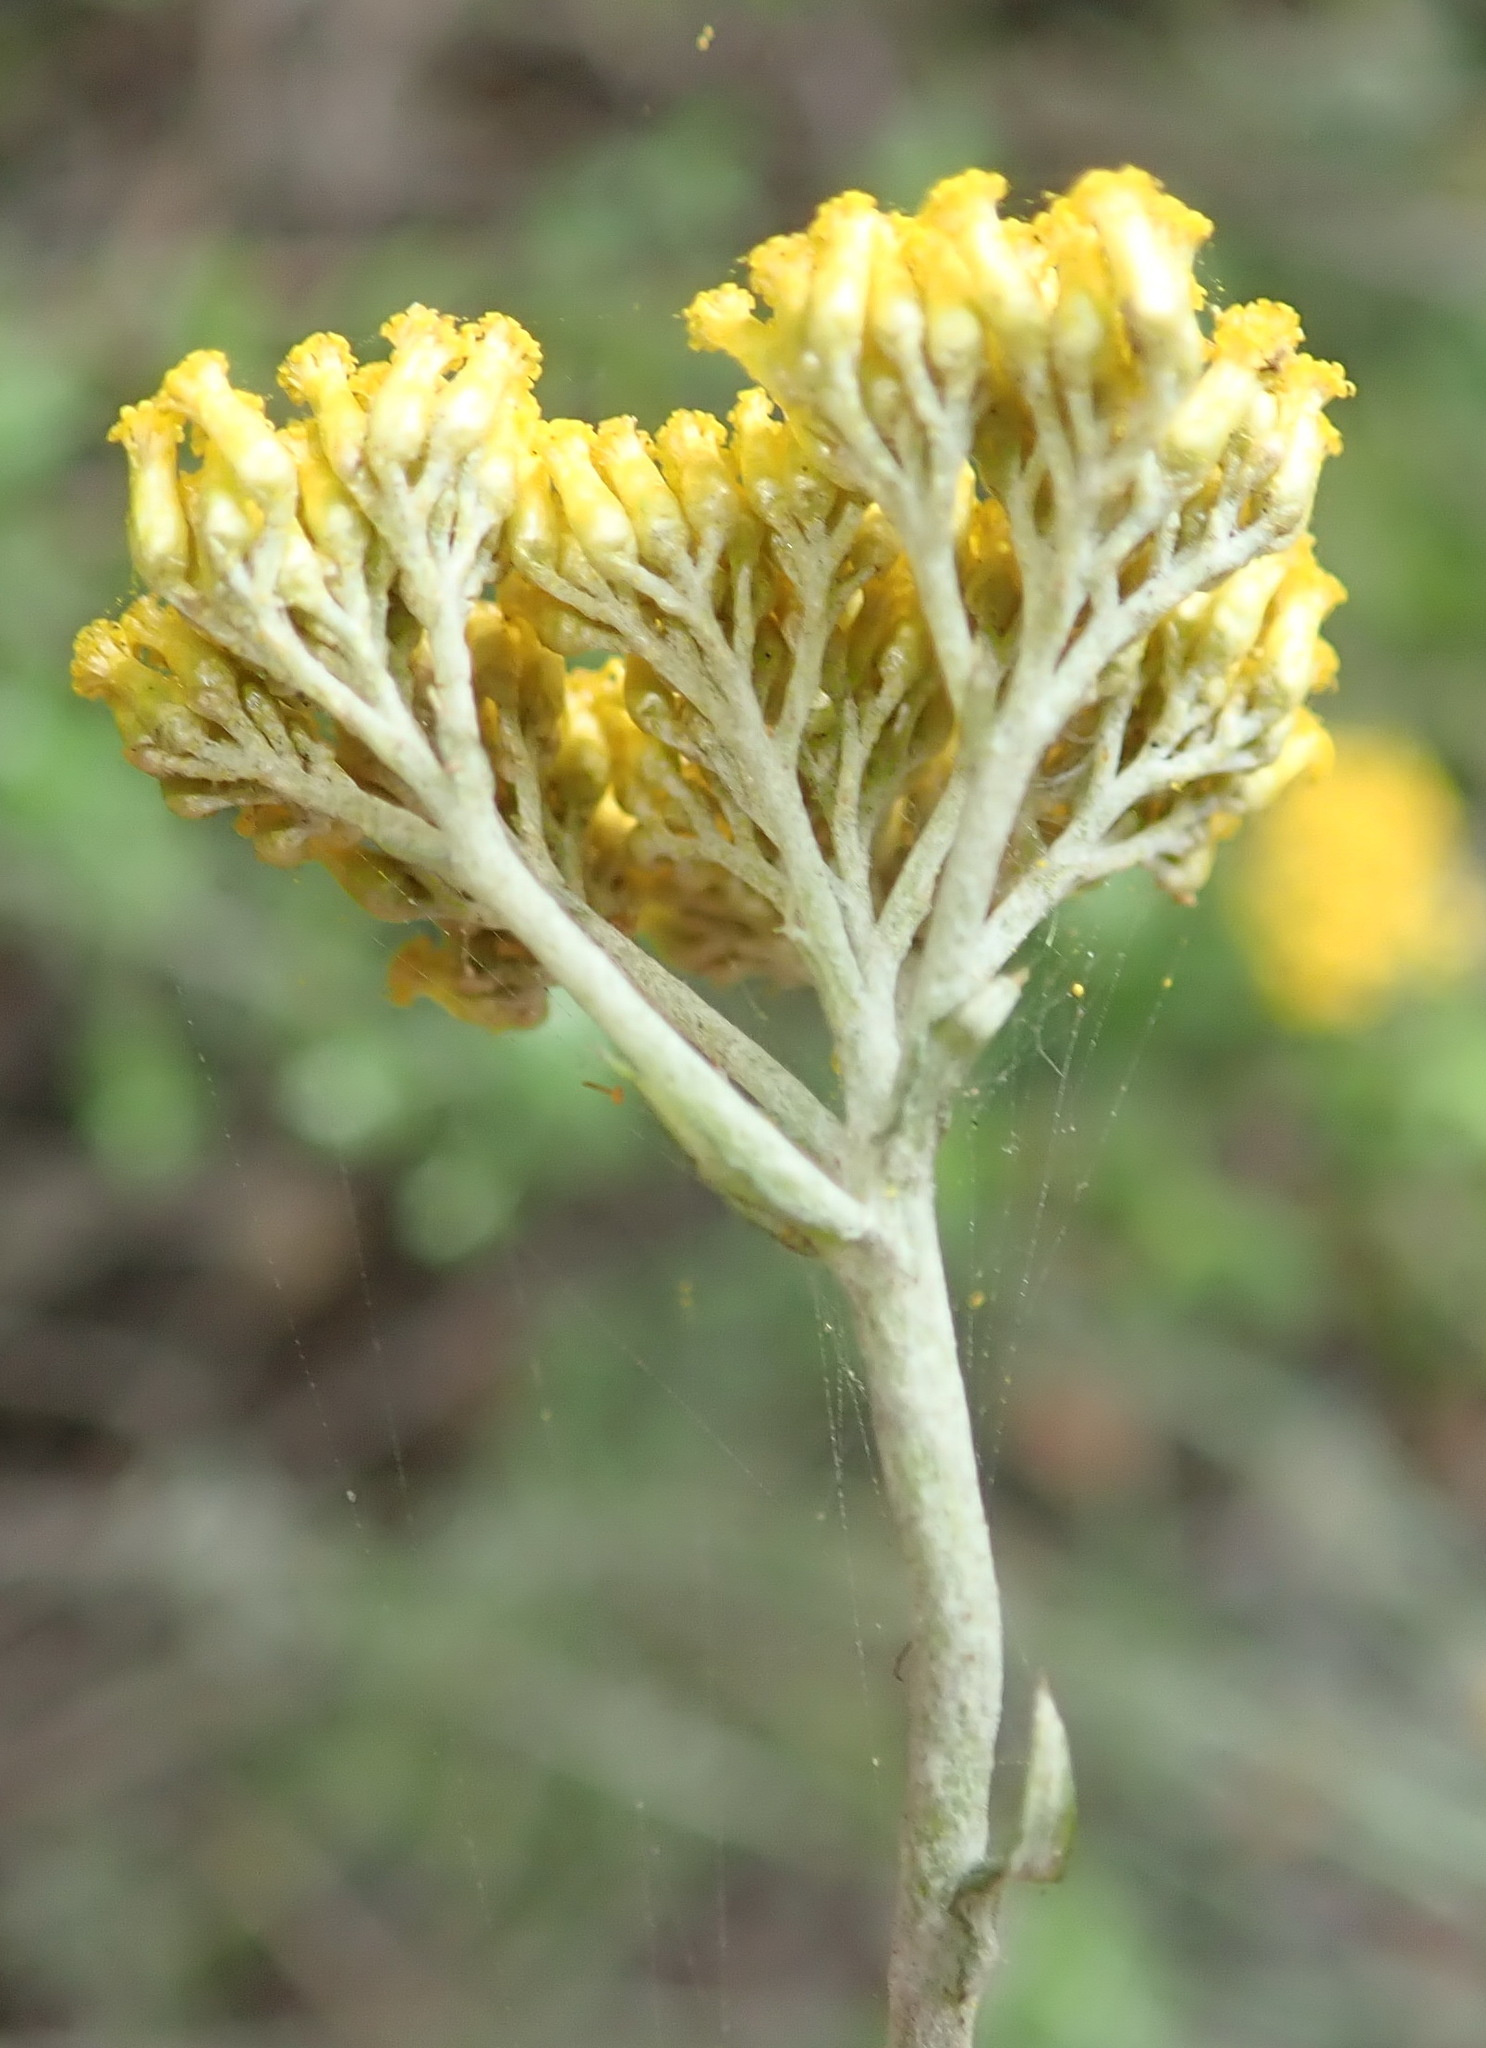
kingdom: Plantae
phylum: Tracheophyta
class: Magnoliopsida
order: Asterales
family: Asteraceae
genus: Helichrysum
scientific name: Helichrysum cymosum
